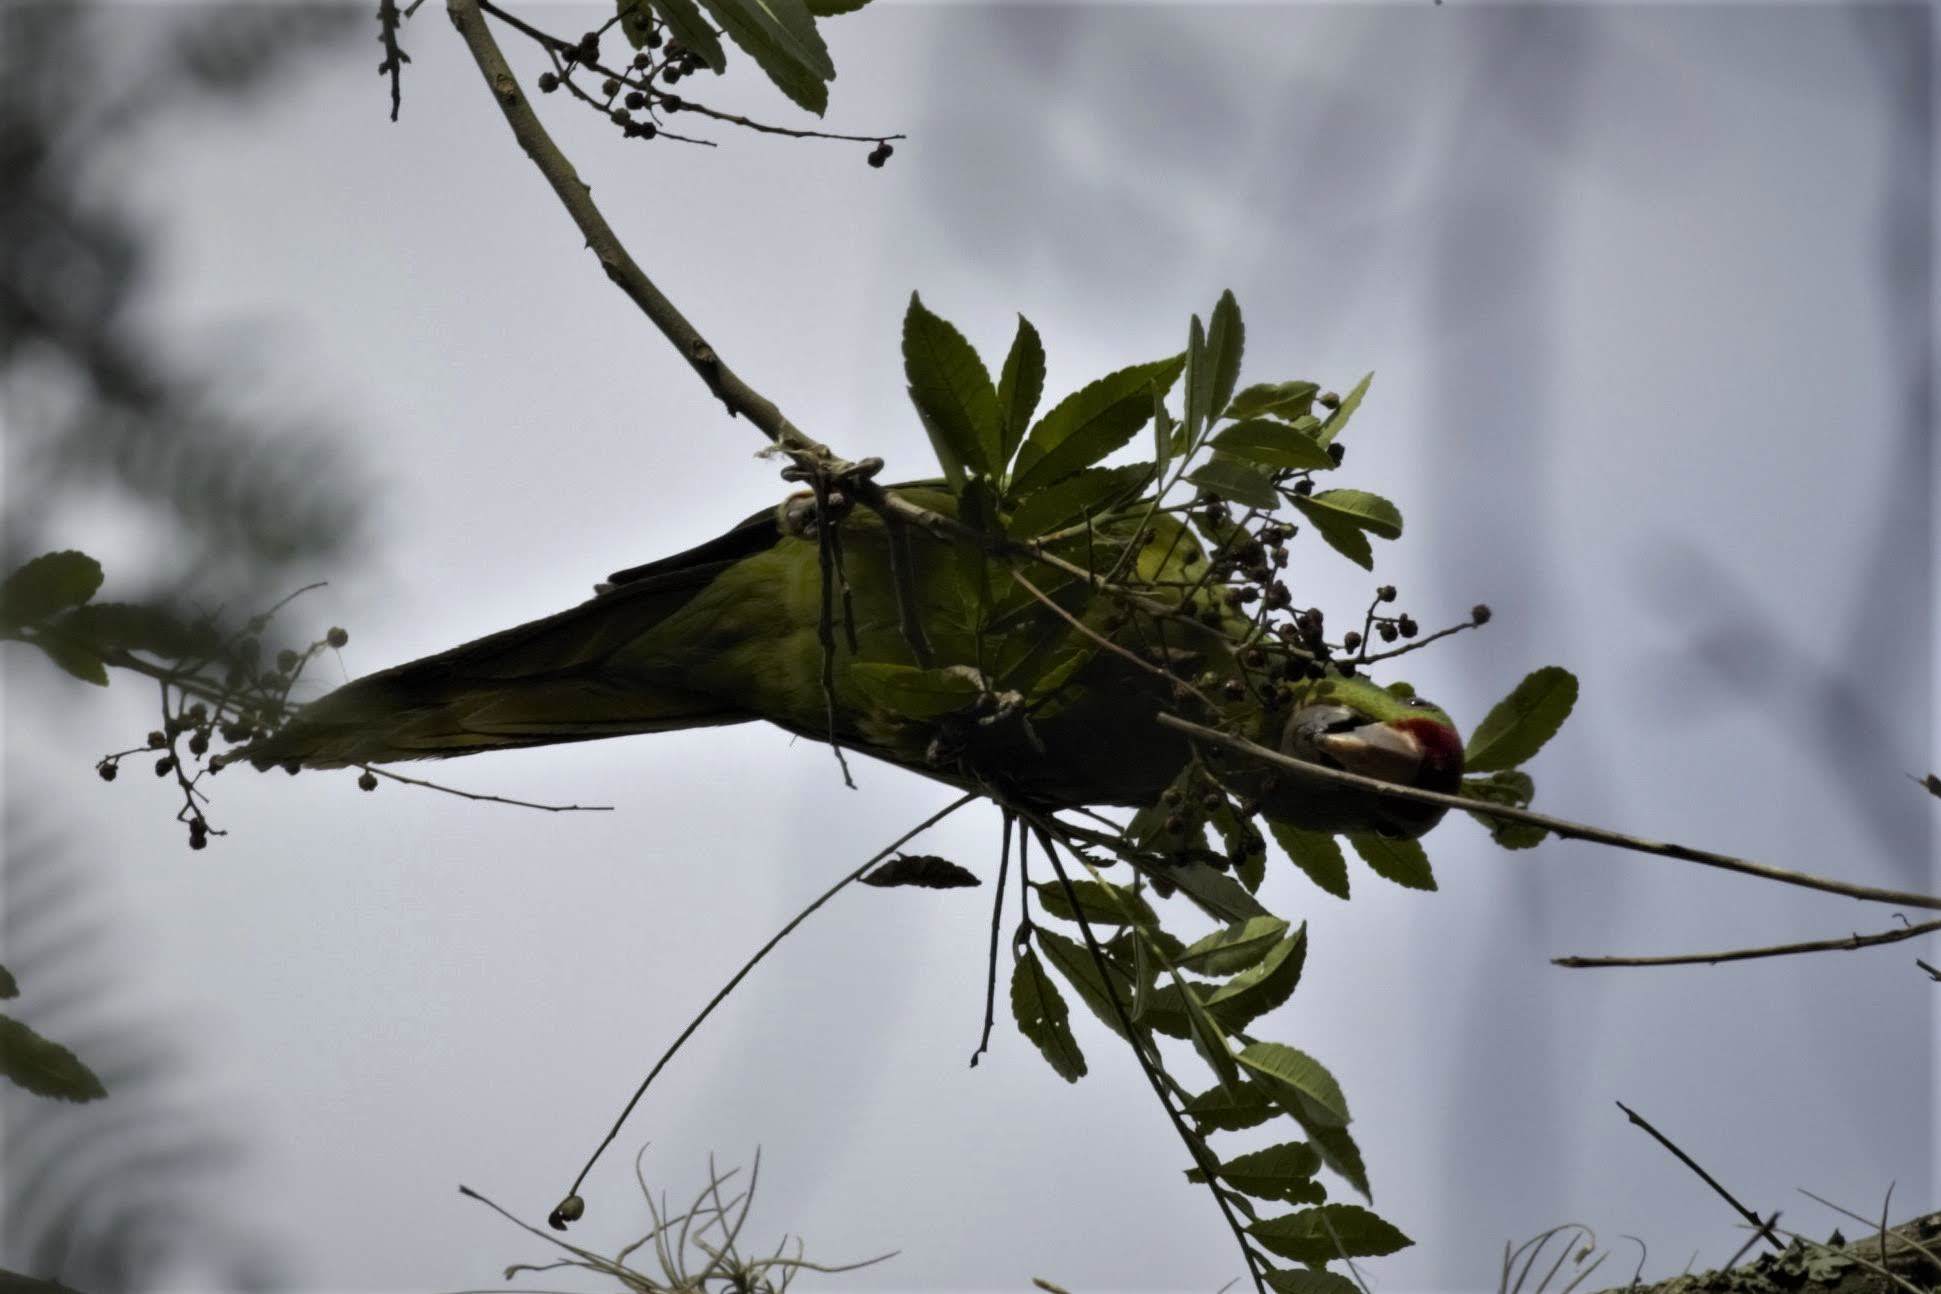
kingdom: Animalia
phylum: Chordata
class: Aves
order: Psittaciformes
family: Psittacidae
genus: Aratinga
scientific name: Aratinga wagleri
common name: Scarlet-fronted parakeet
